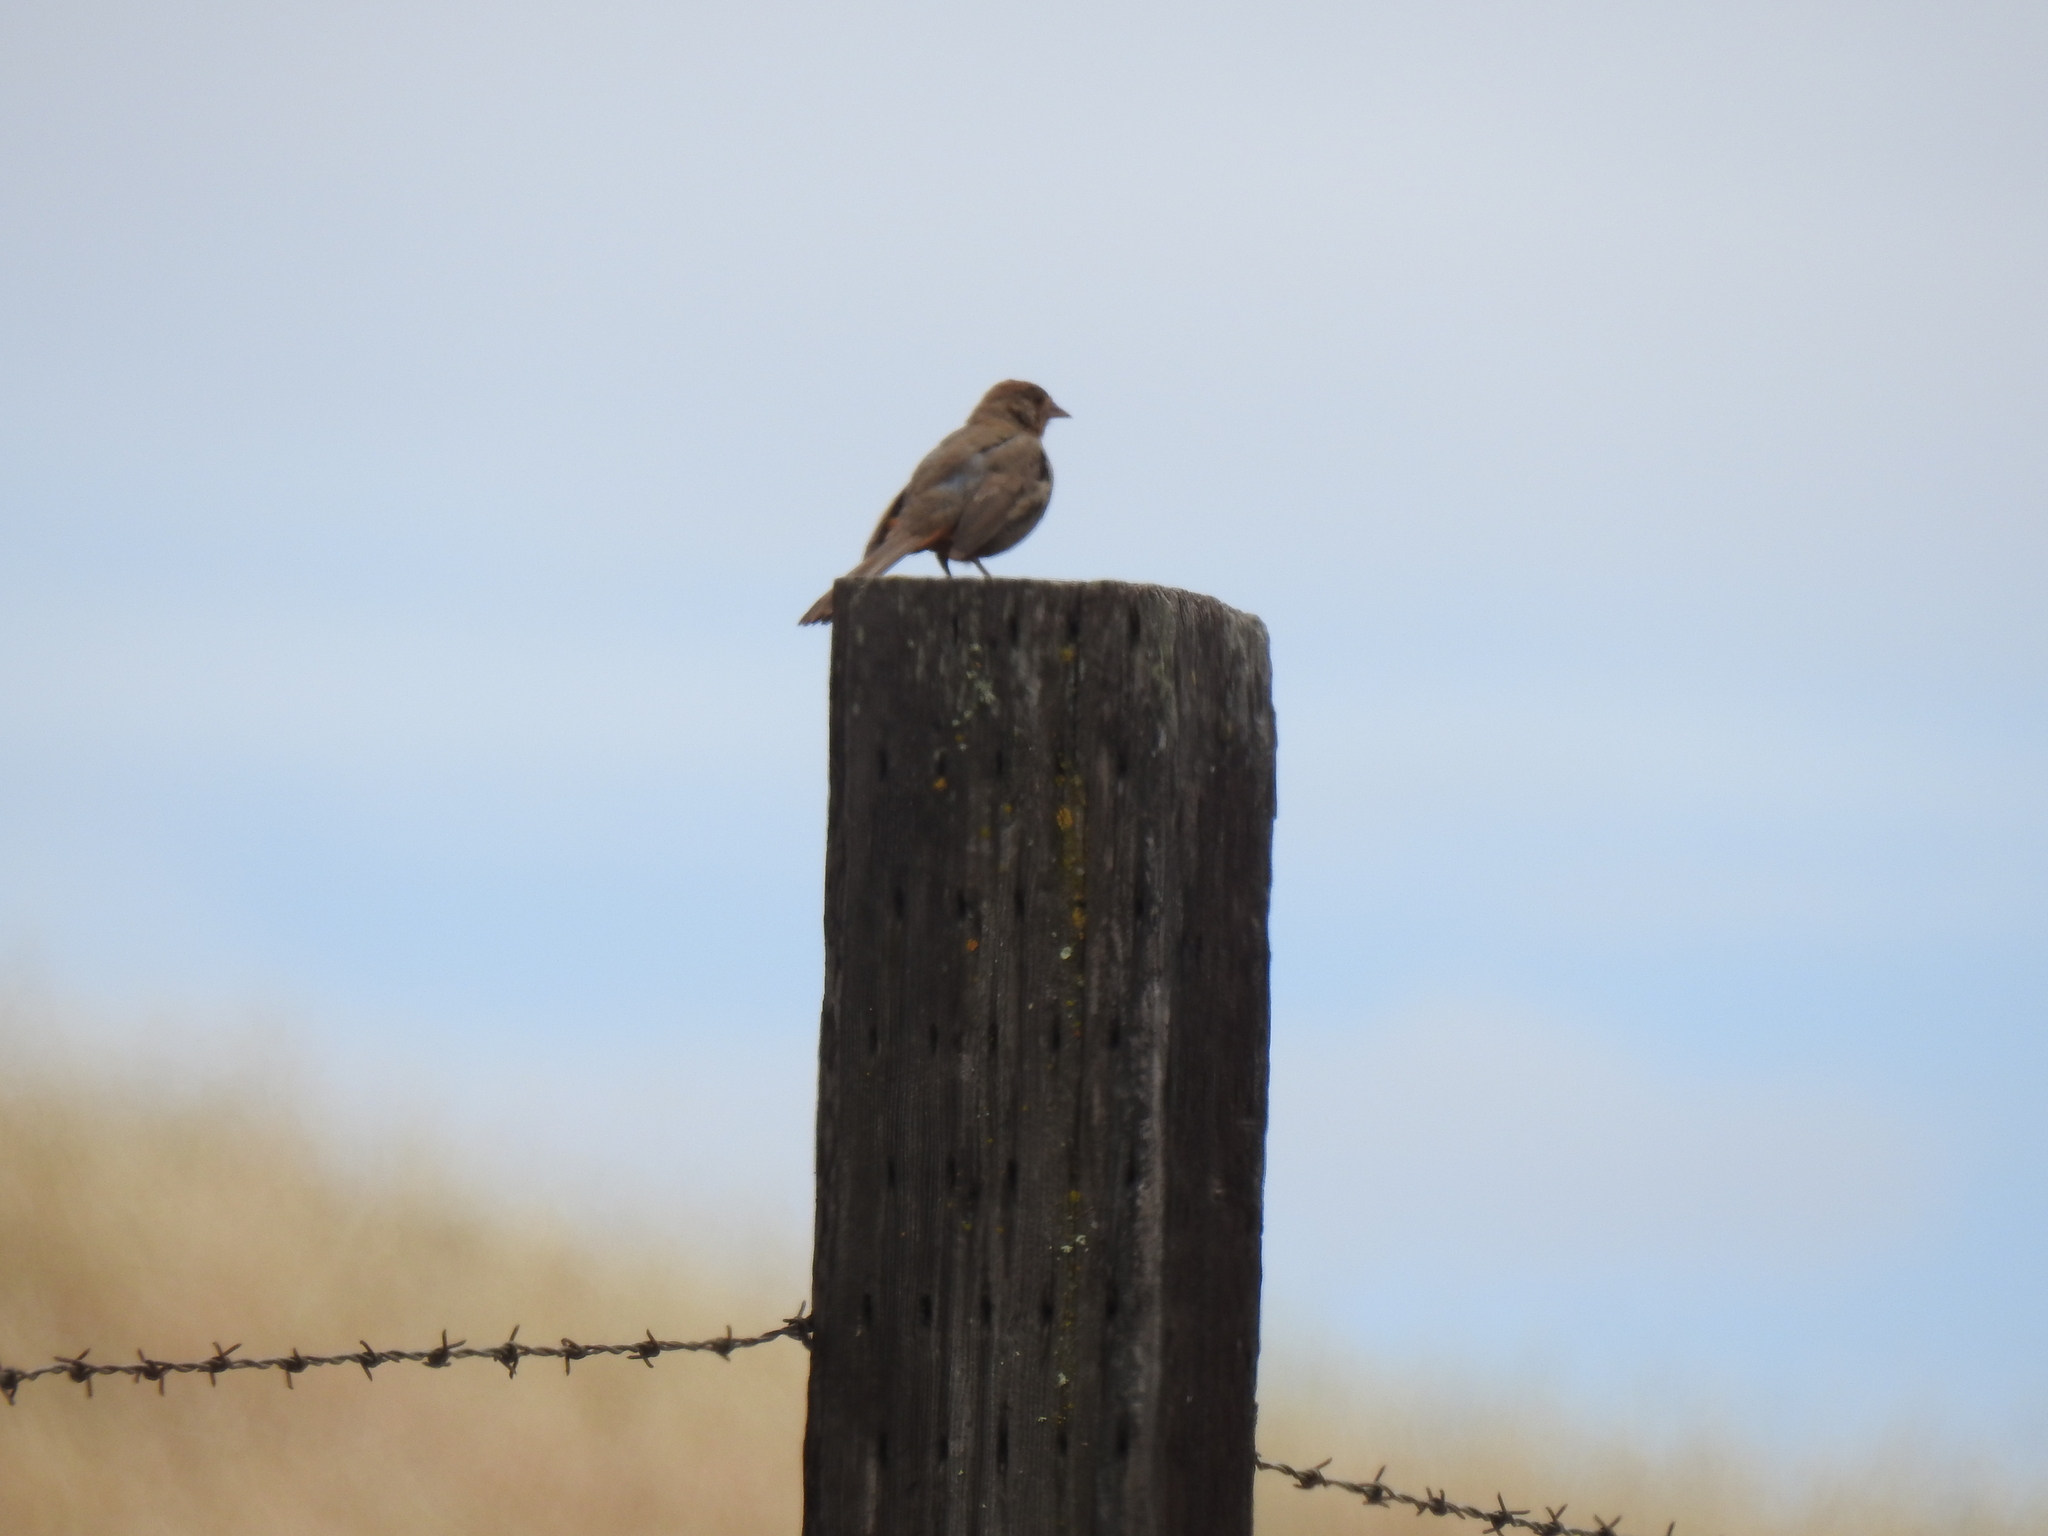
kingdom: Animalia
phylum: Chordata
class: Aves
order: Passeriformes
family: Passerellidae
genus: Melozone
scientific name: Melozone crissalis
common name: California towhee
